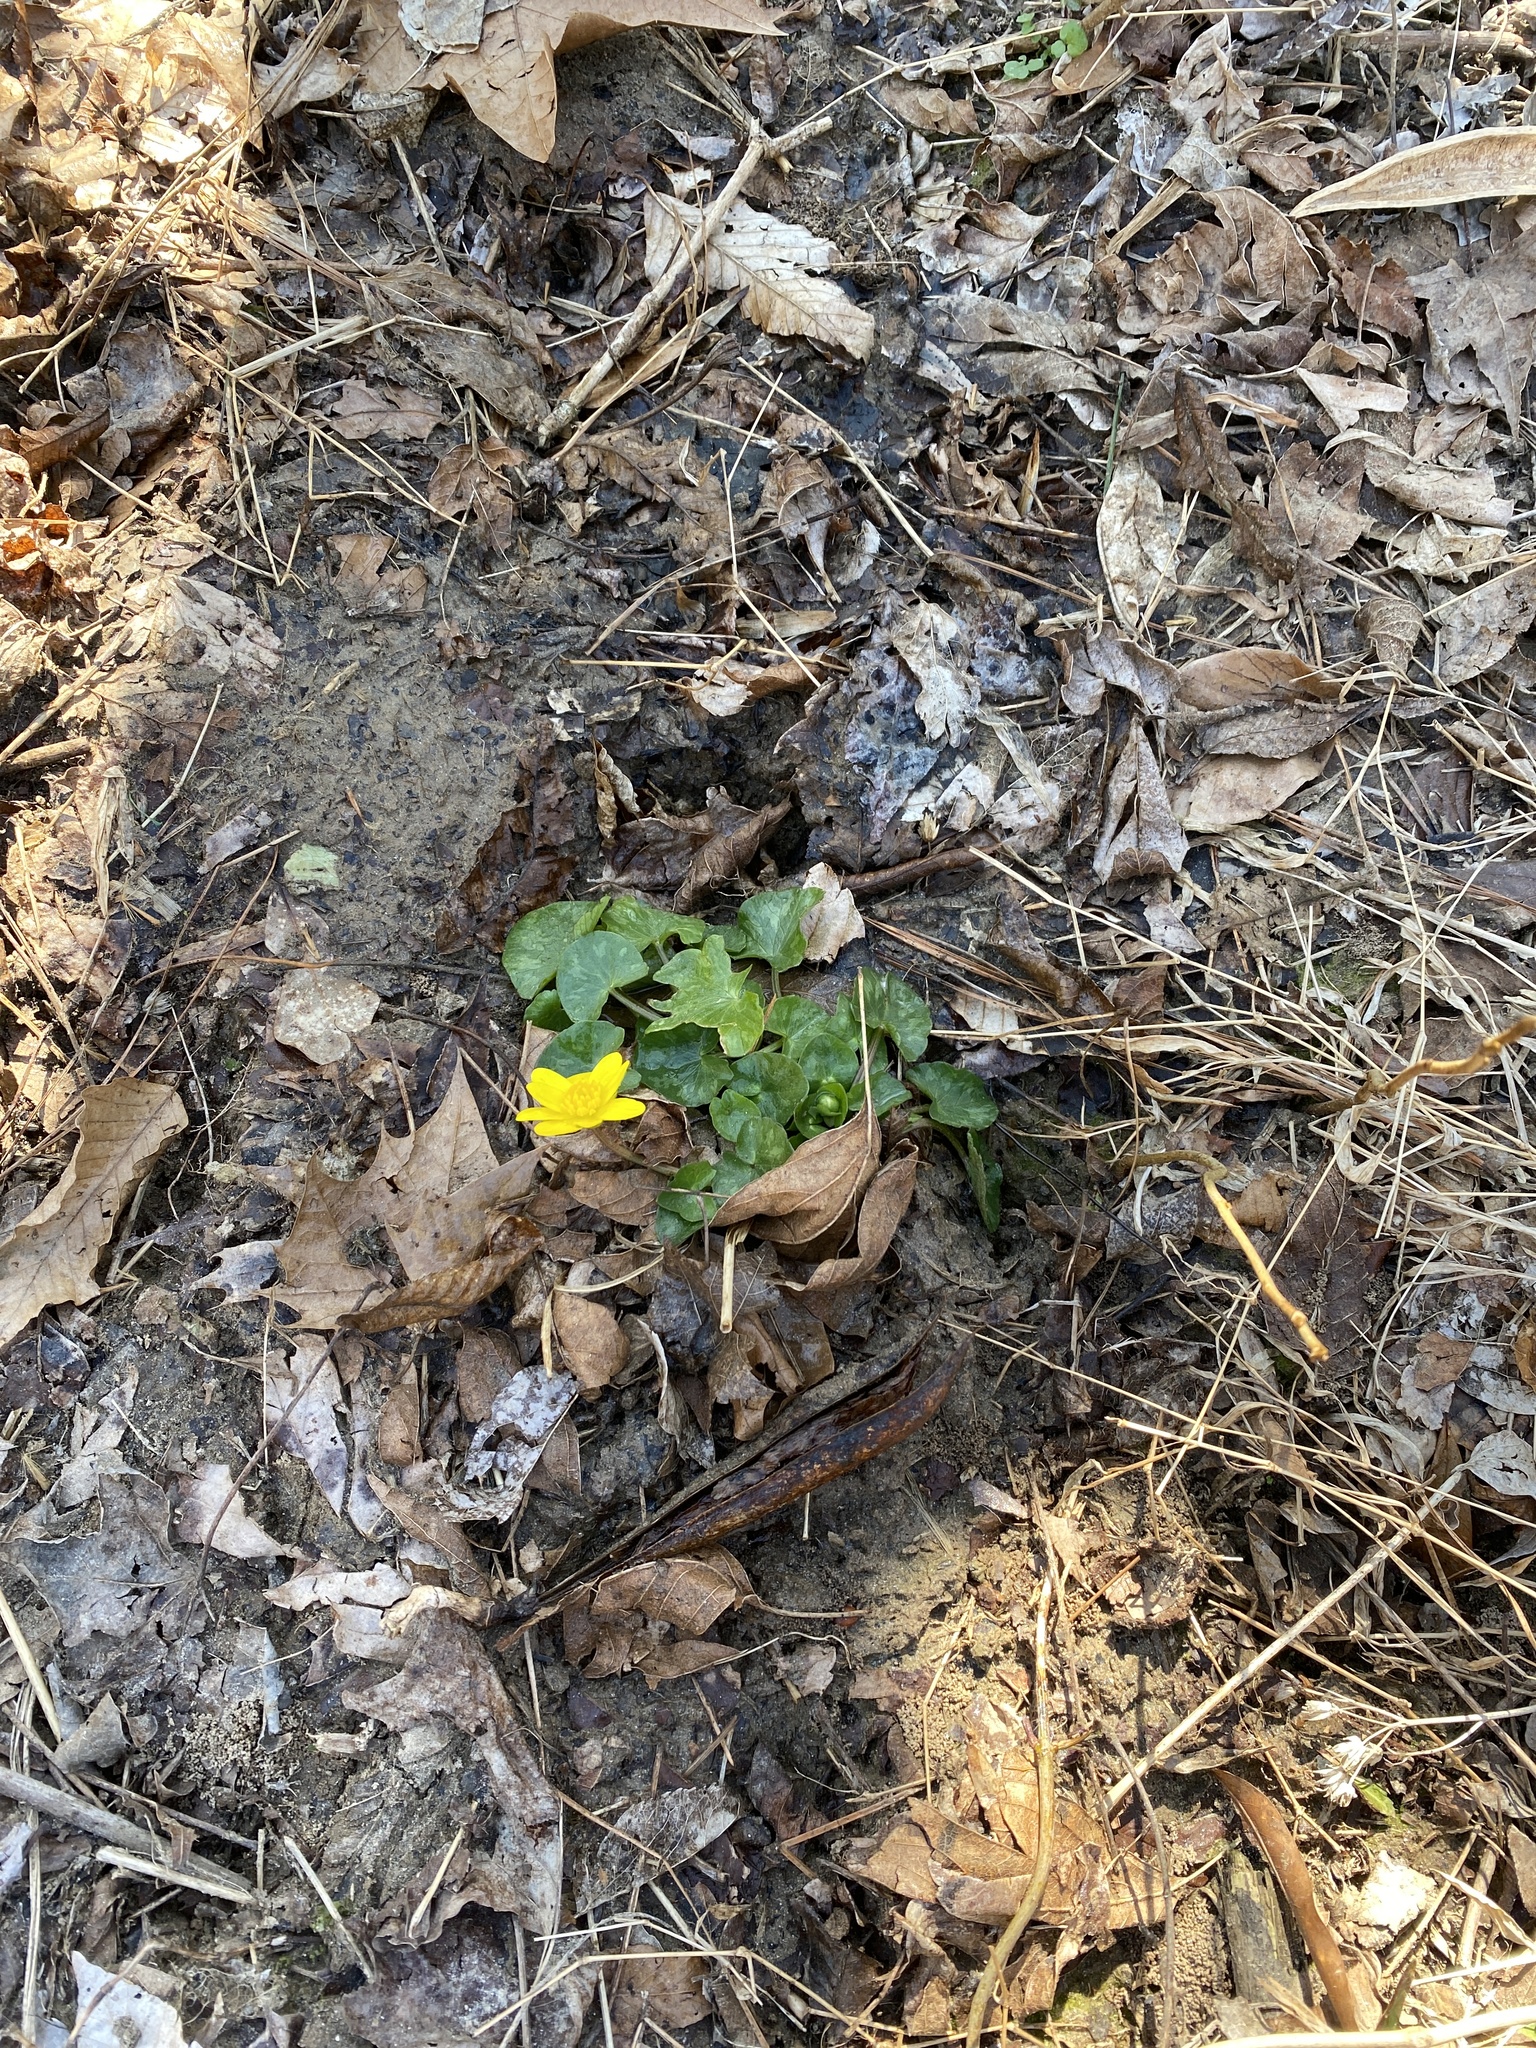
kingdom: Plantae
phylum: Tracheophyta
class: Magnoliopsida
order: Ranunculales
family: Ranunculaceae
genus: Ficaria
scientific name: Ficaria verna
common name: Lesser celandine
